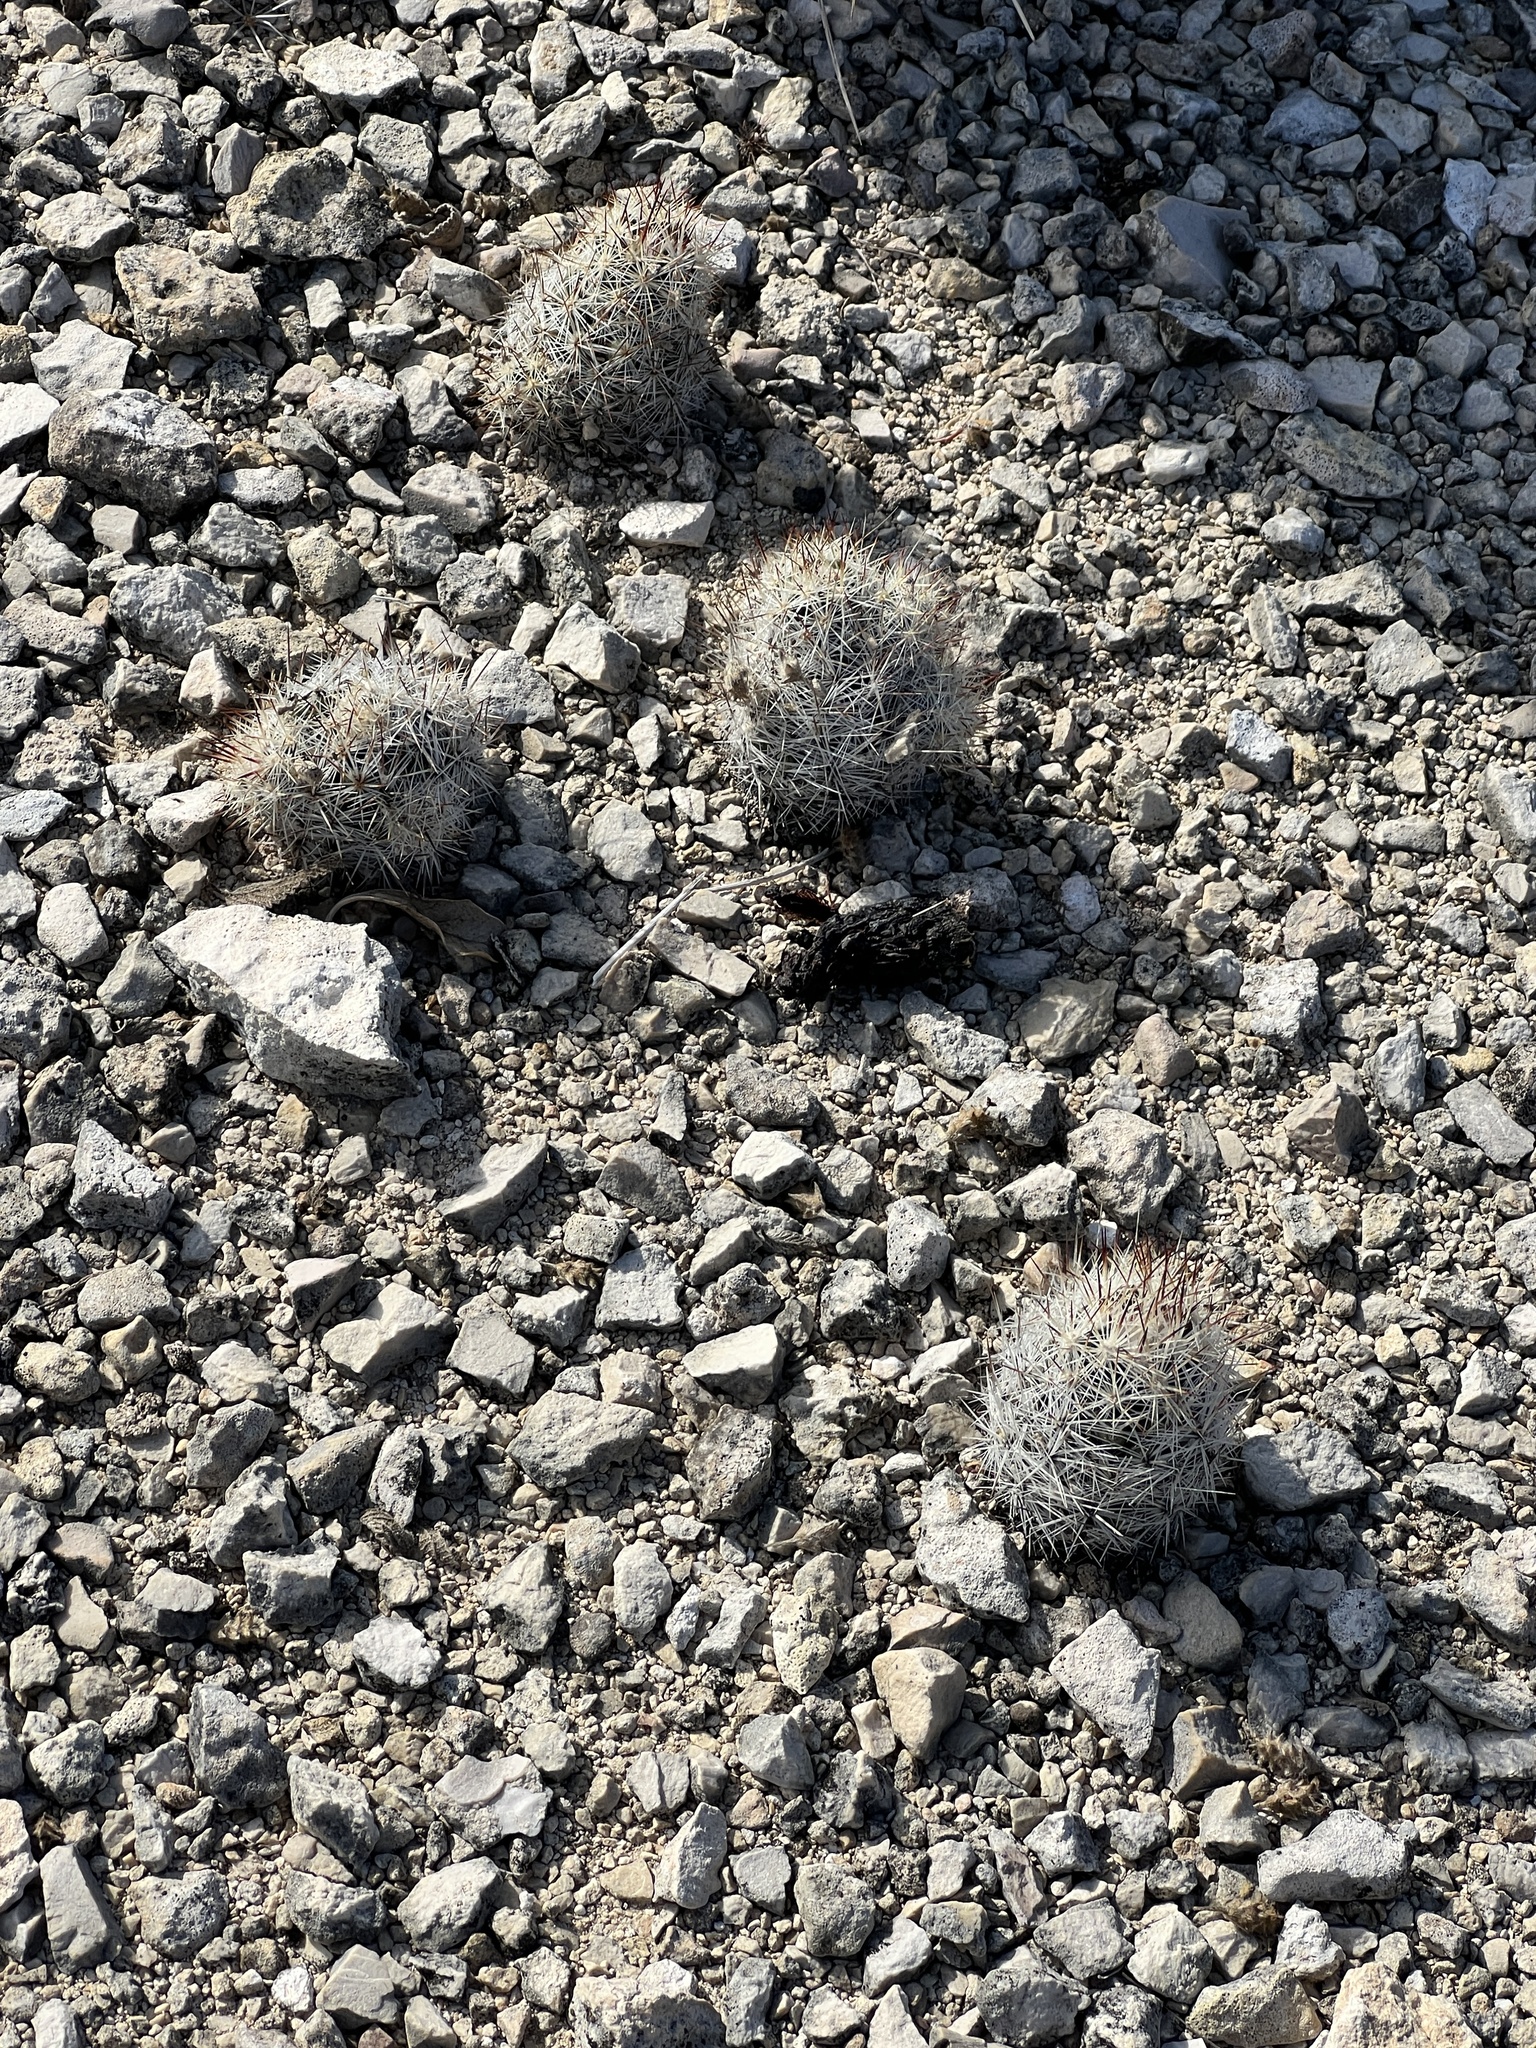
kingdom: Plantae
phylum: Tracheophyta
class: Magnoliopsida
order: Caryophyllales
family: Cactaceae
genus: Pelecyphora
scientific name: Pelecyphora emskoetteriana
